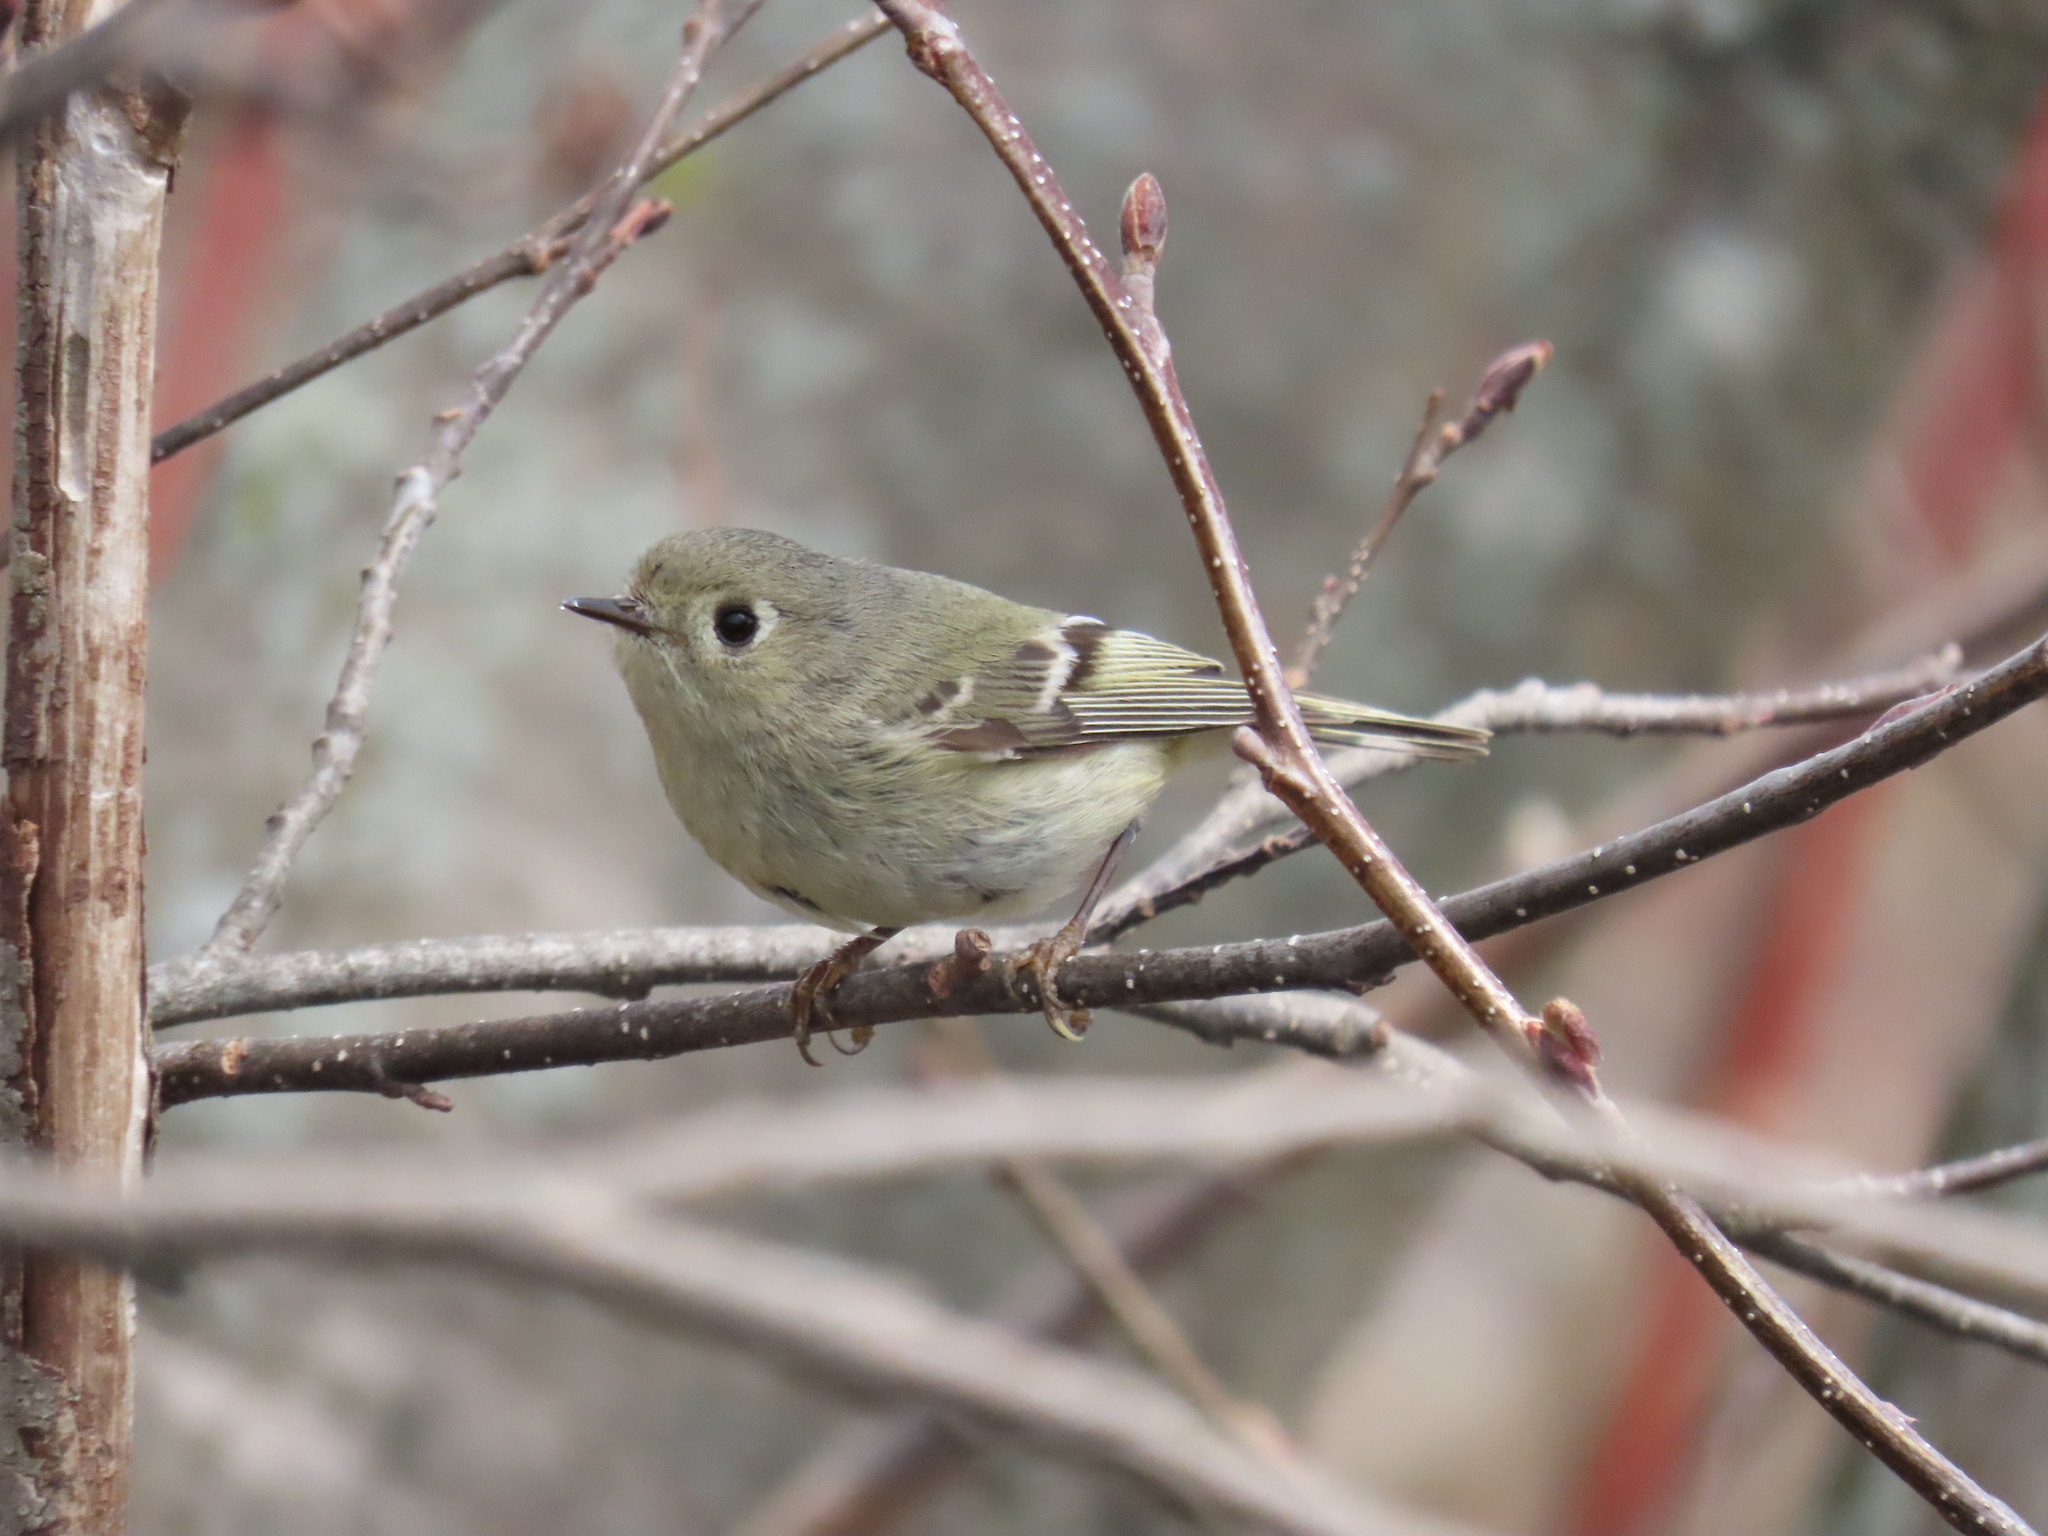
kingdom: Animalia
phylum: Chordata
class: Aves
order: Passeriformes
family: Regulidae
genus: Regulus
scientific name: Regulus calendula
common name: Ruby-crowned kinglet
